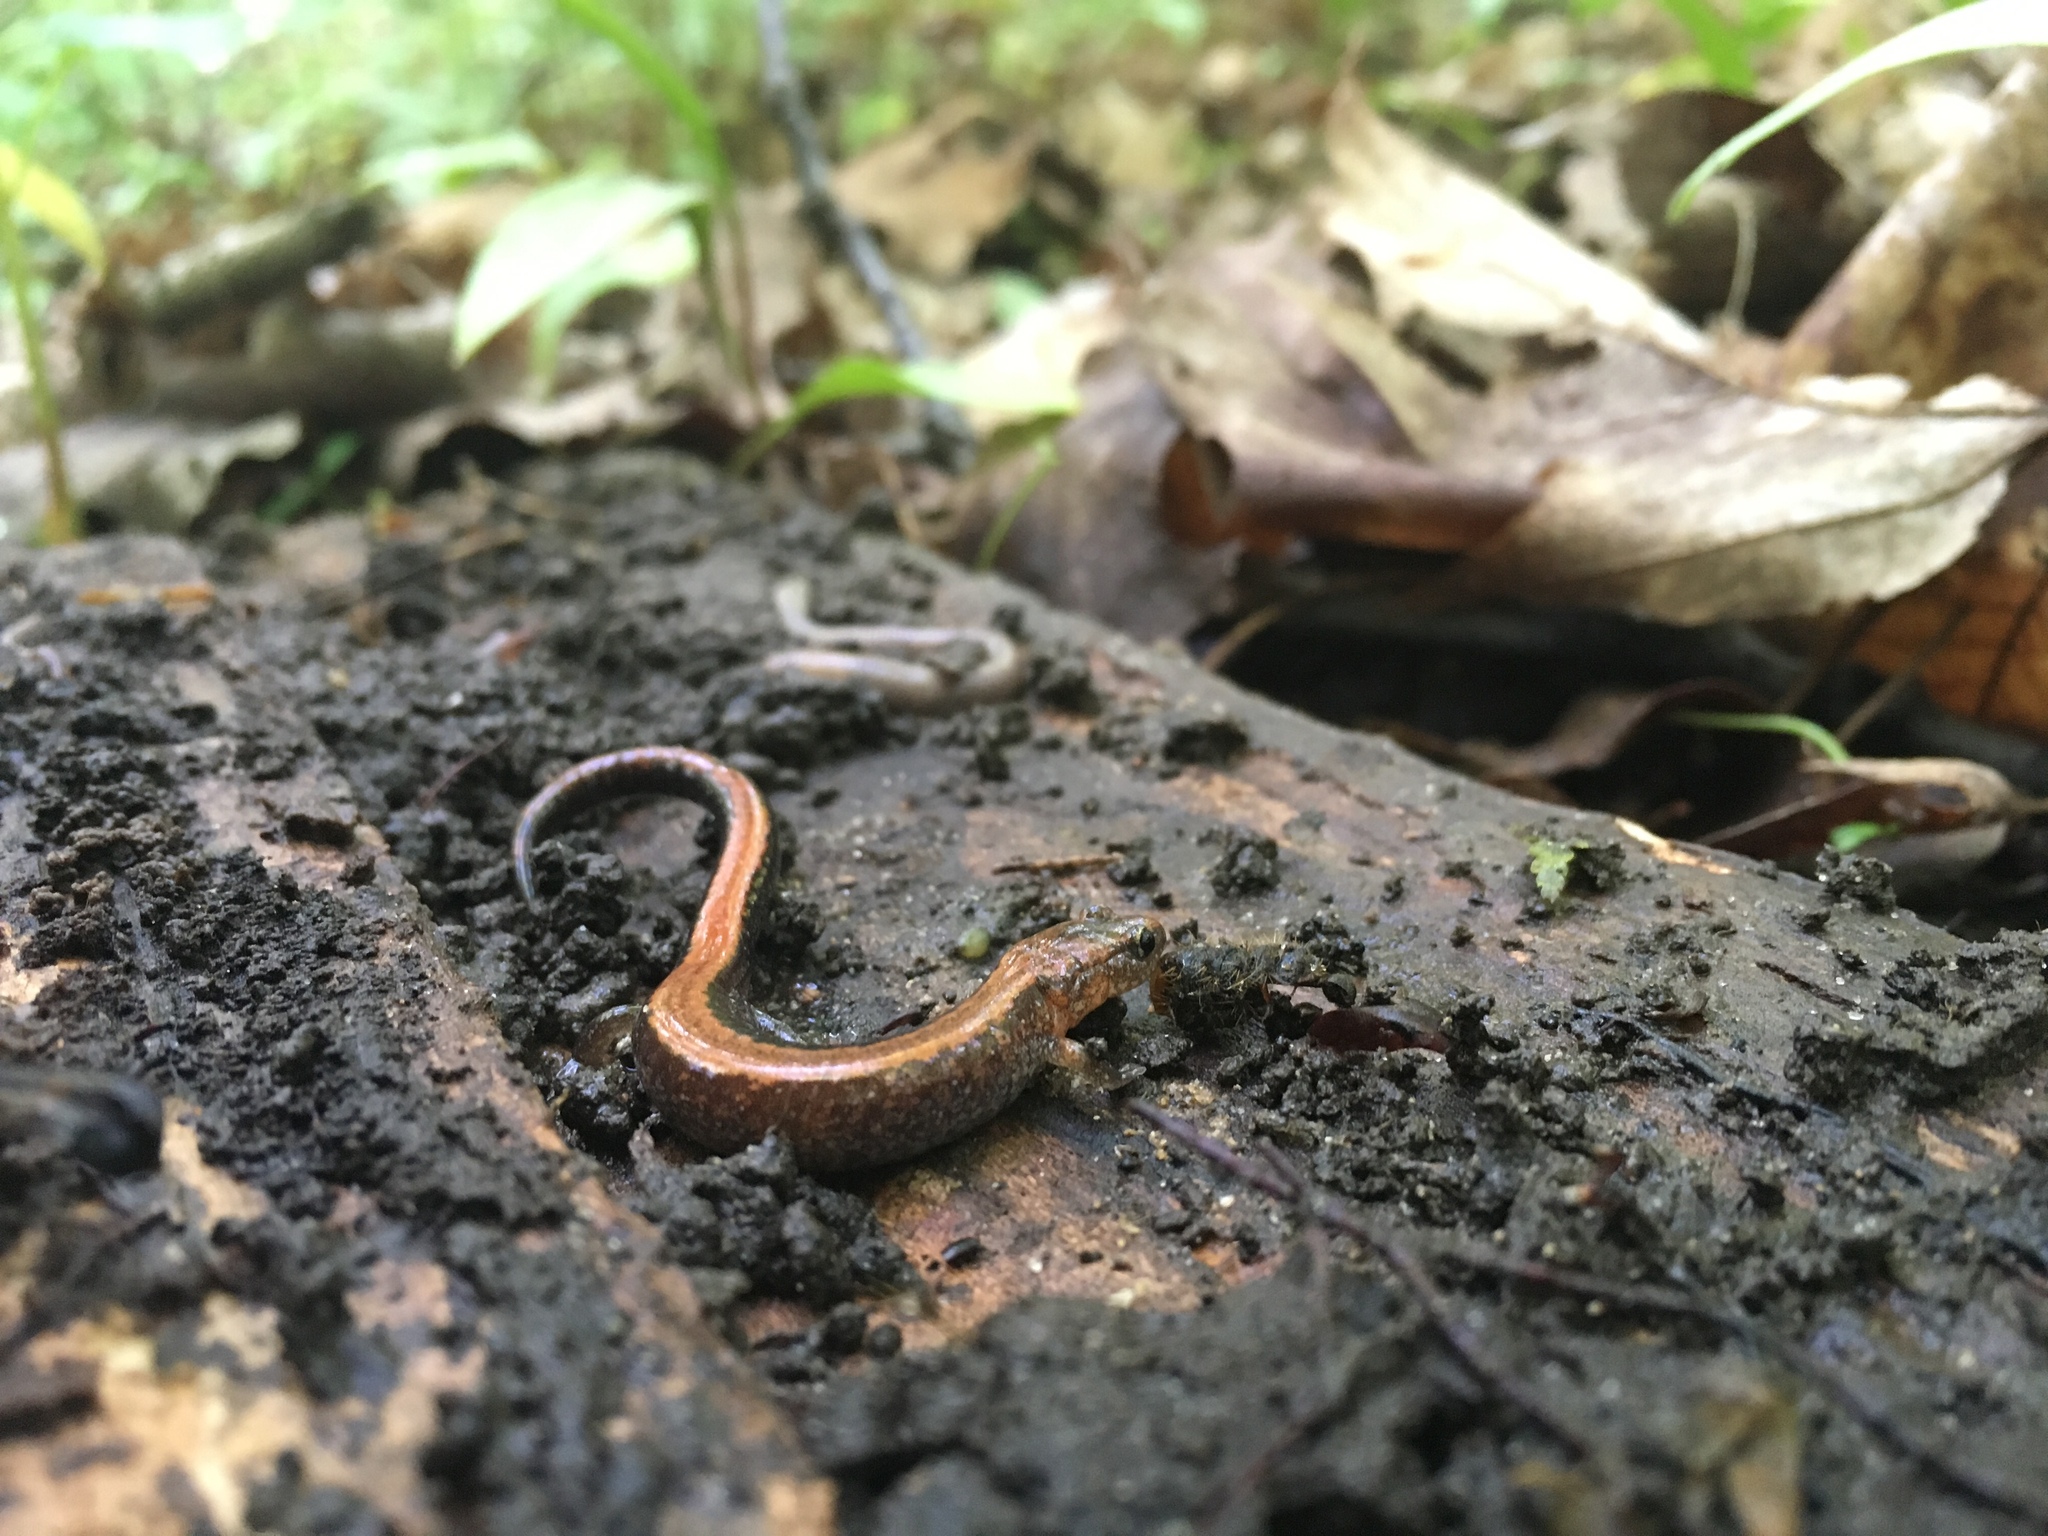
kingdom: Animalia
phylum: Chordata
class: Amphibia
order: Caudata
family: Plethodontidae
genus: Plethodon
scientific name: Plethodon cinereus
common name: Redback salamander
